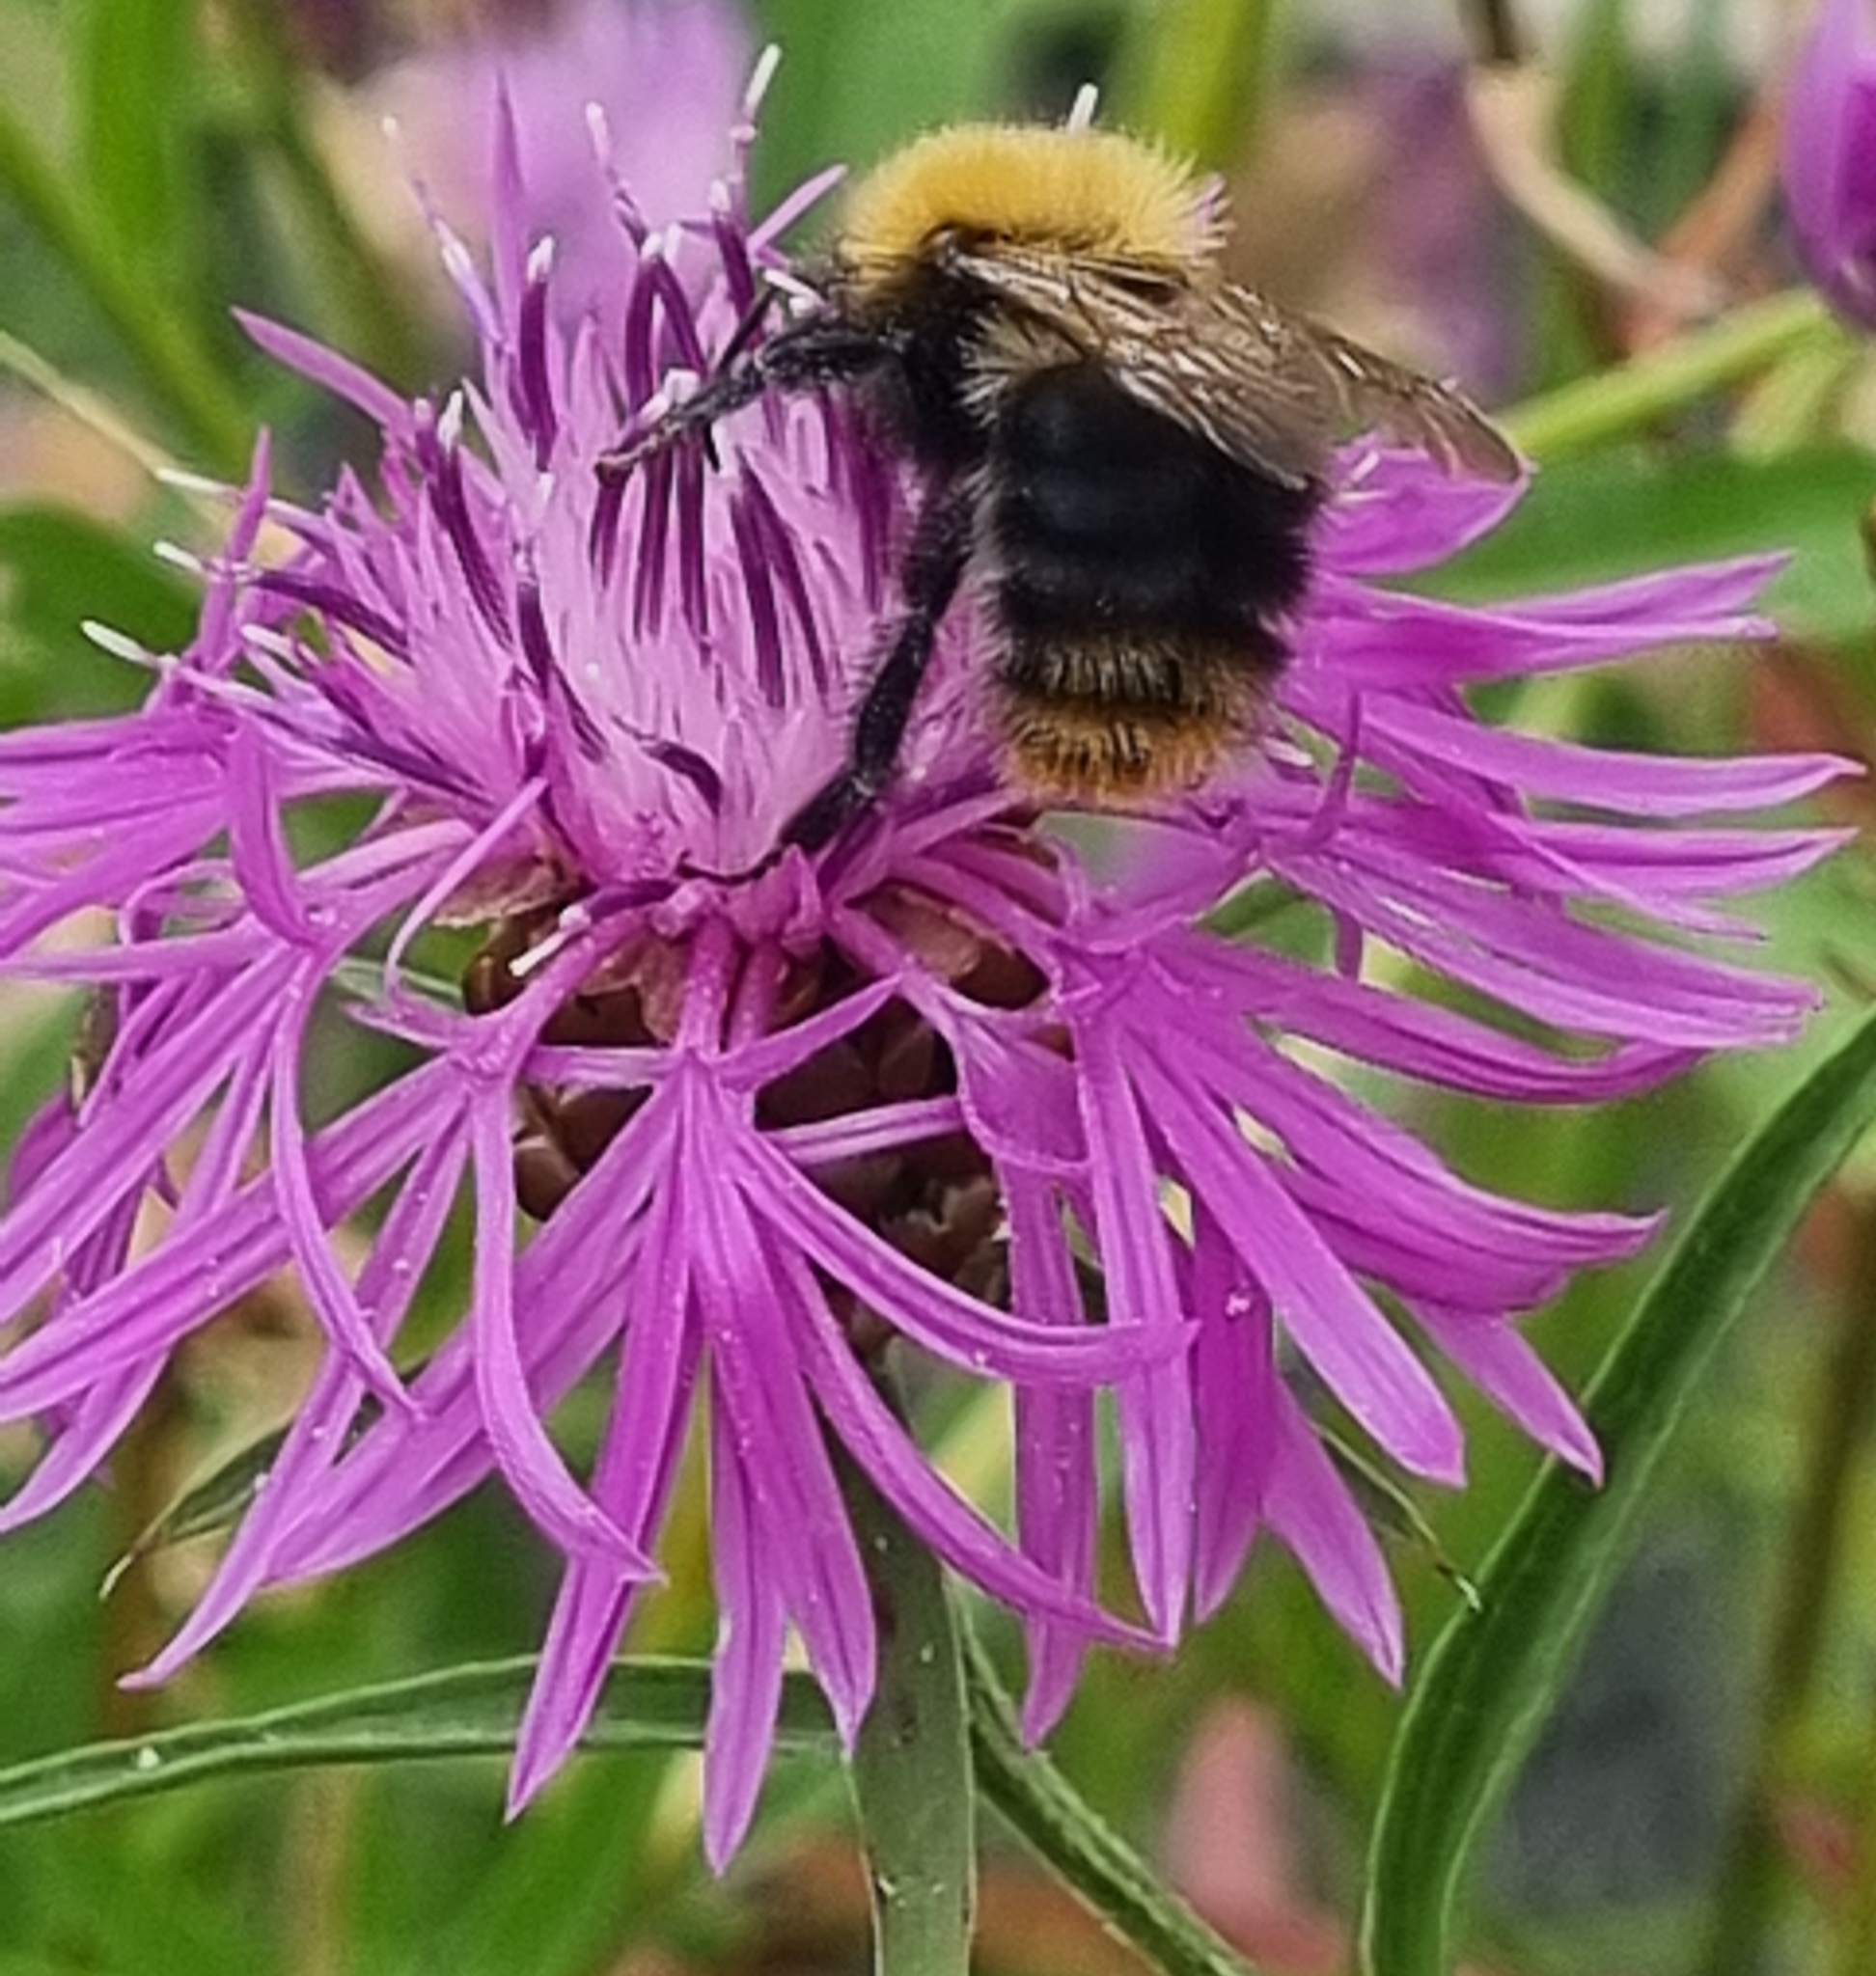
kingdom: Animalia
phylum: Arthropoda
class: Insecta
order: Hymenoptera
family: Apidae
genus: Bombus
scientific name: Bombus pascuorum
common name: Common carder bee
